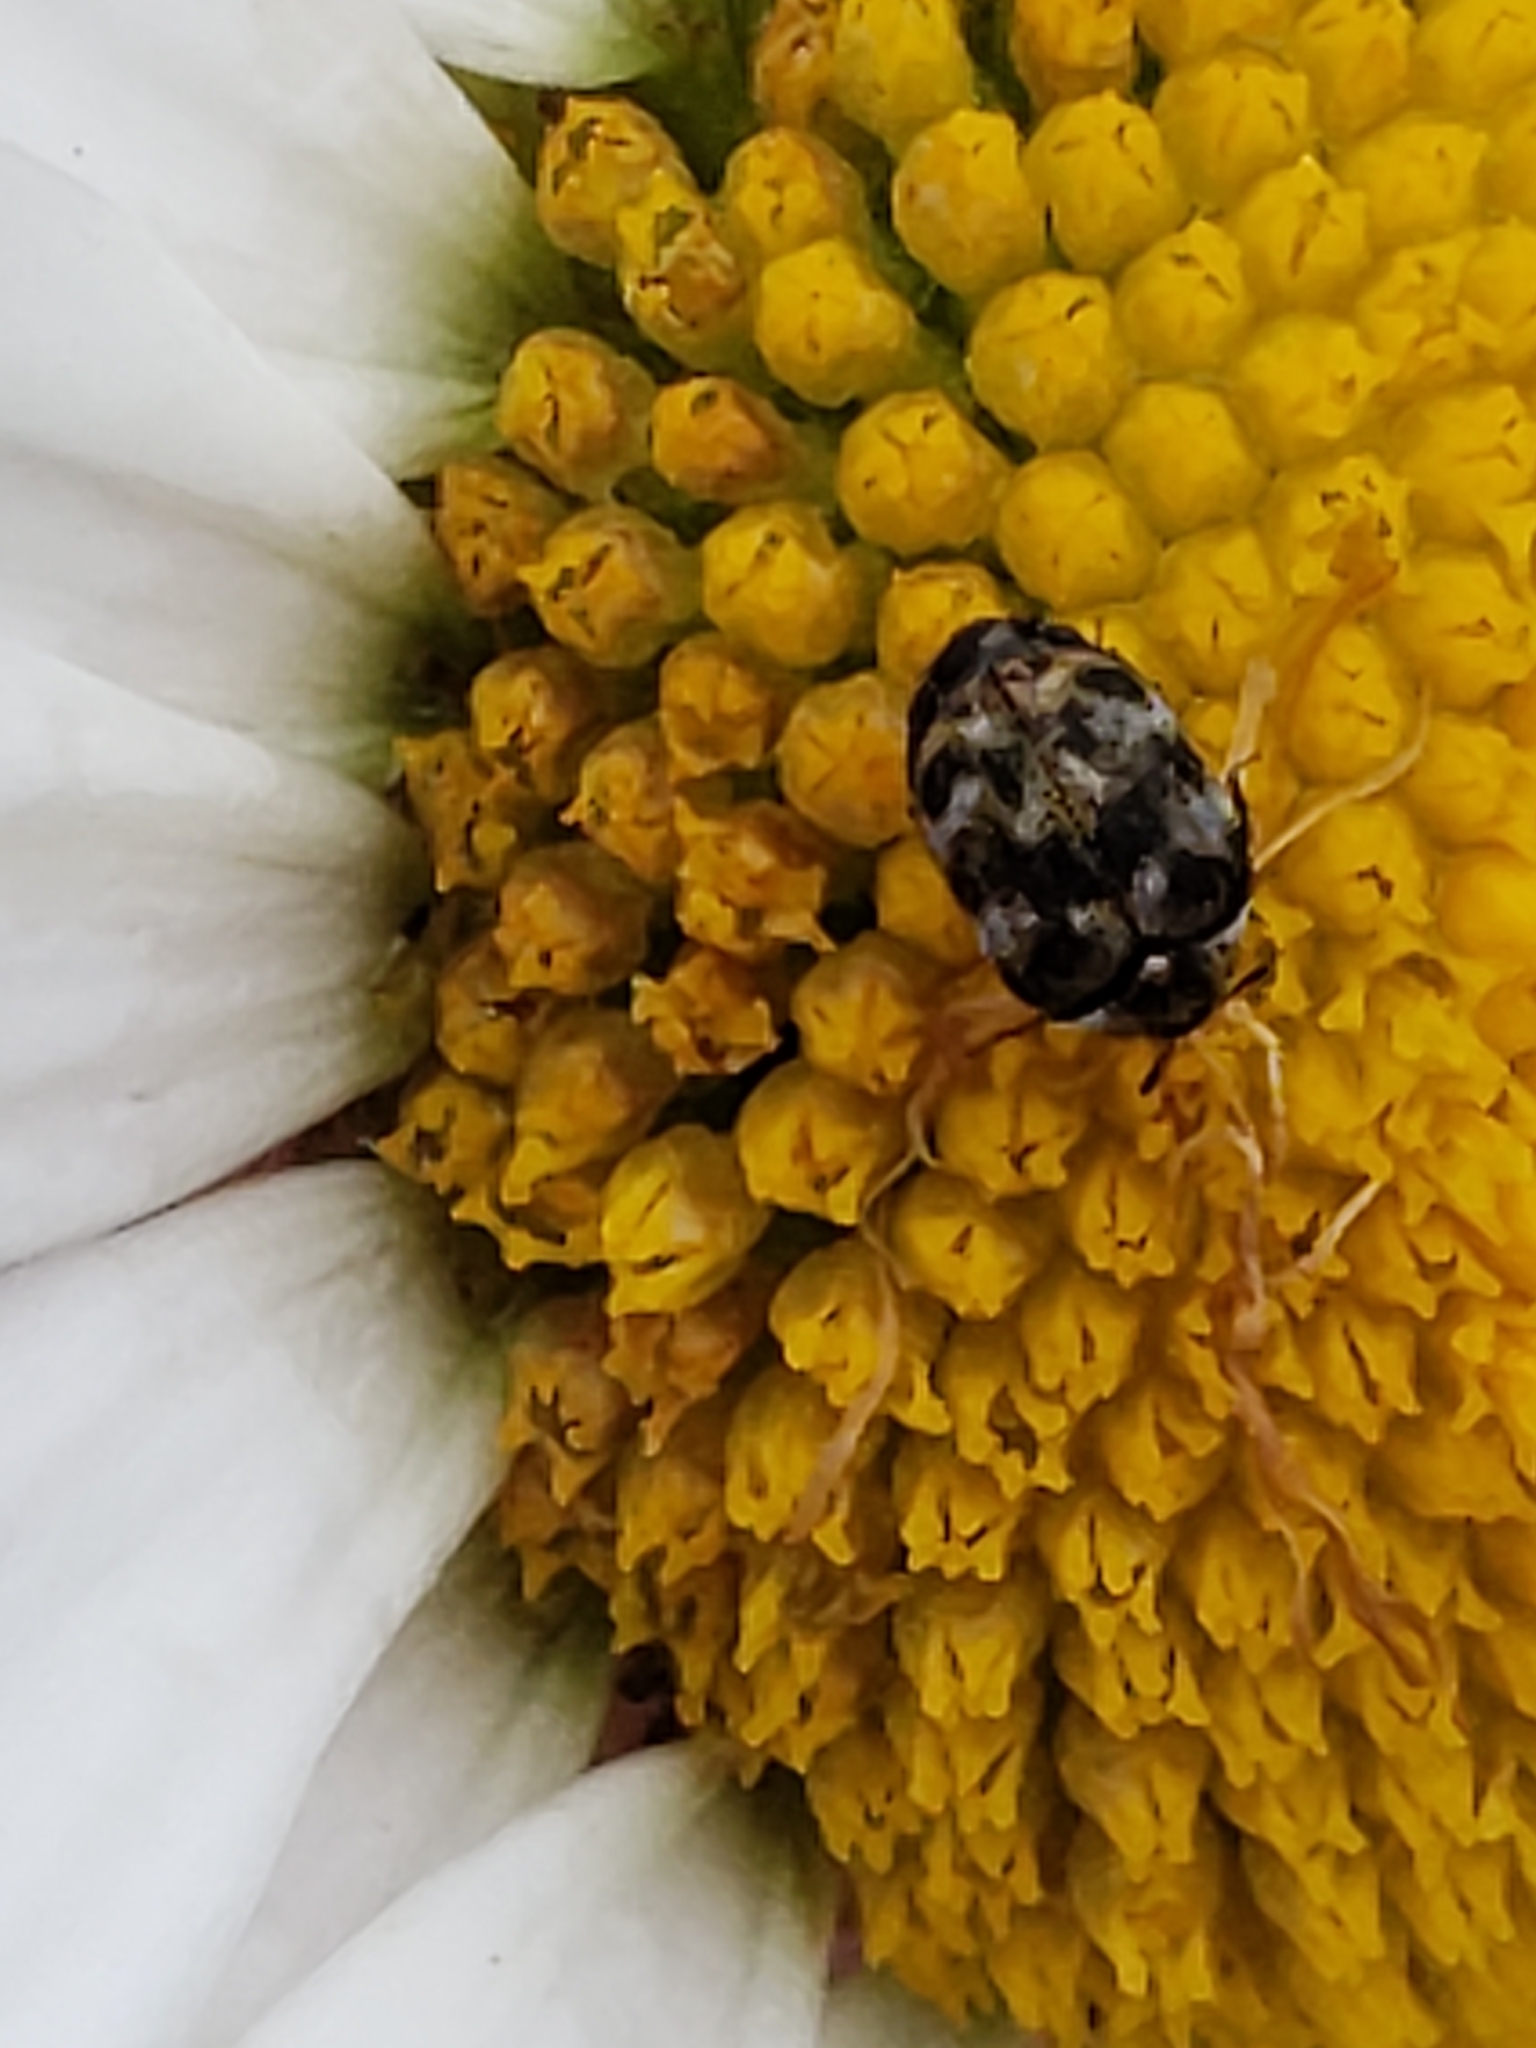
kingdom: Animalia
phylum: Arthropoda
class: Insecta
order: Coleoptera
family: Dermestidae
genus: Anthrenus
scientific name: Anthrenus verbasci
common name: Varied carpet beetle
